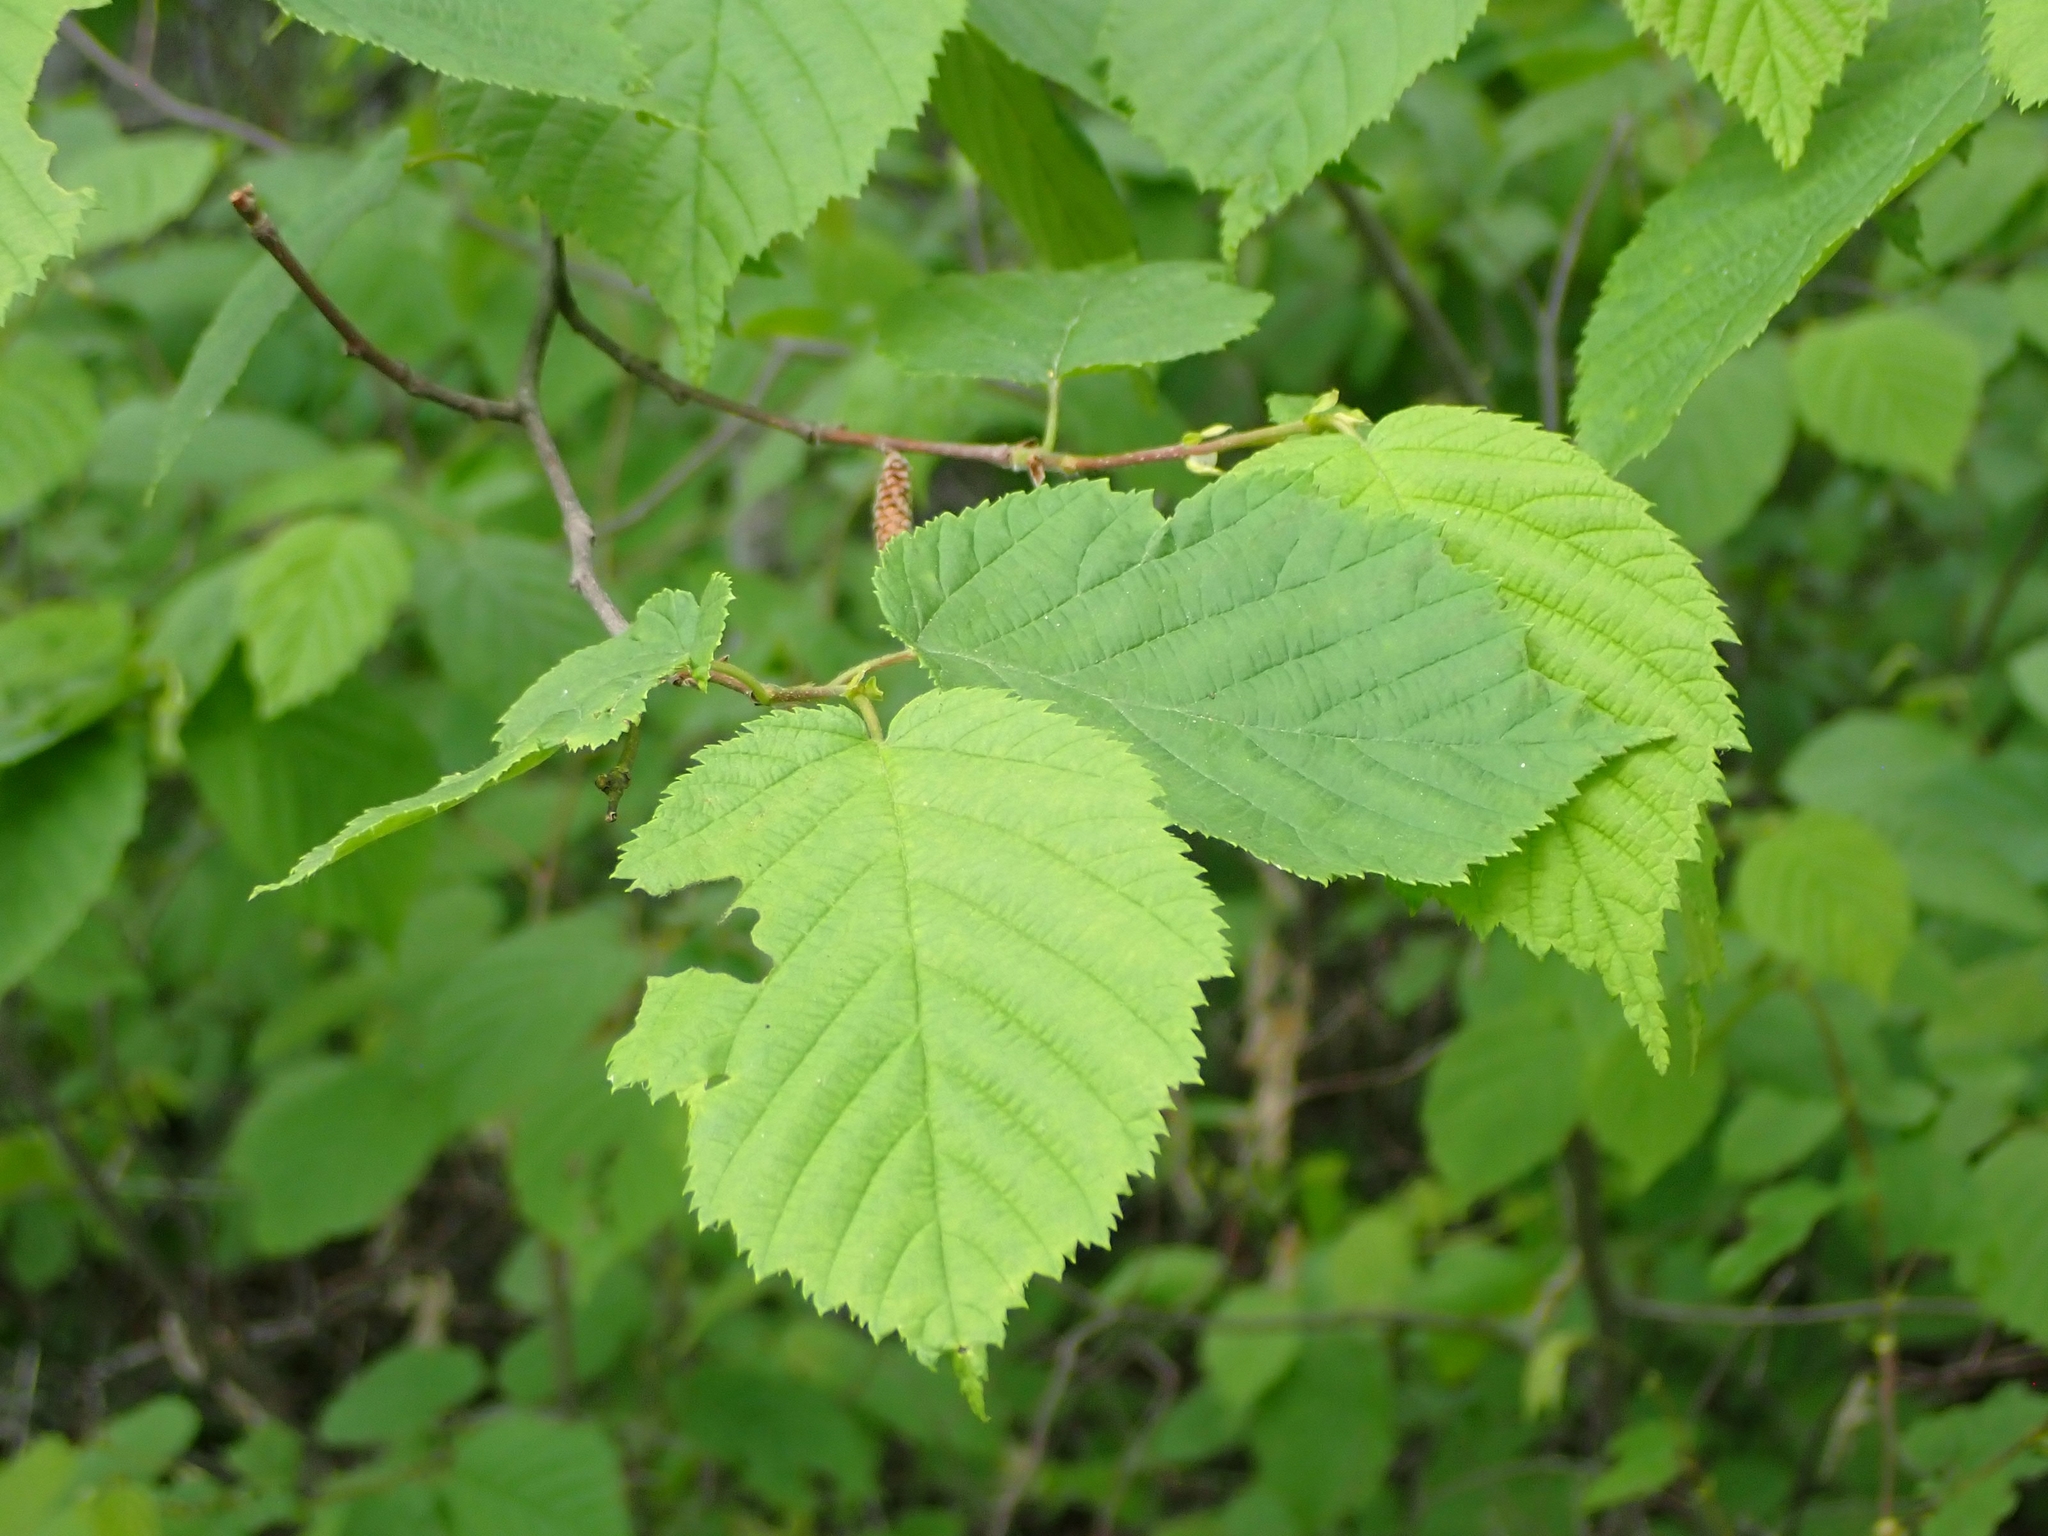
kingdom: Plantae
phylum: Tracheophyta
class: Magnoliopsida
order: Fagales
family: Betulaceae
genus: Corylus
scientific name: Corylus americana
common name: American hazel
